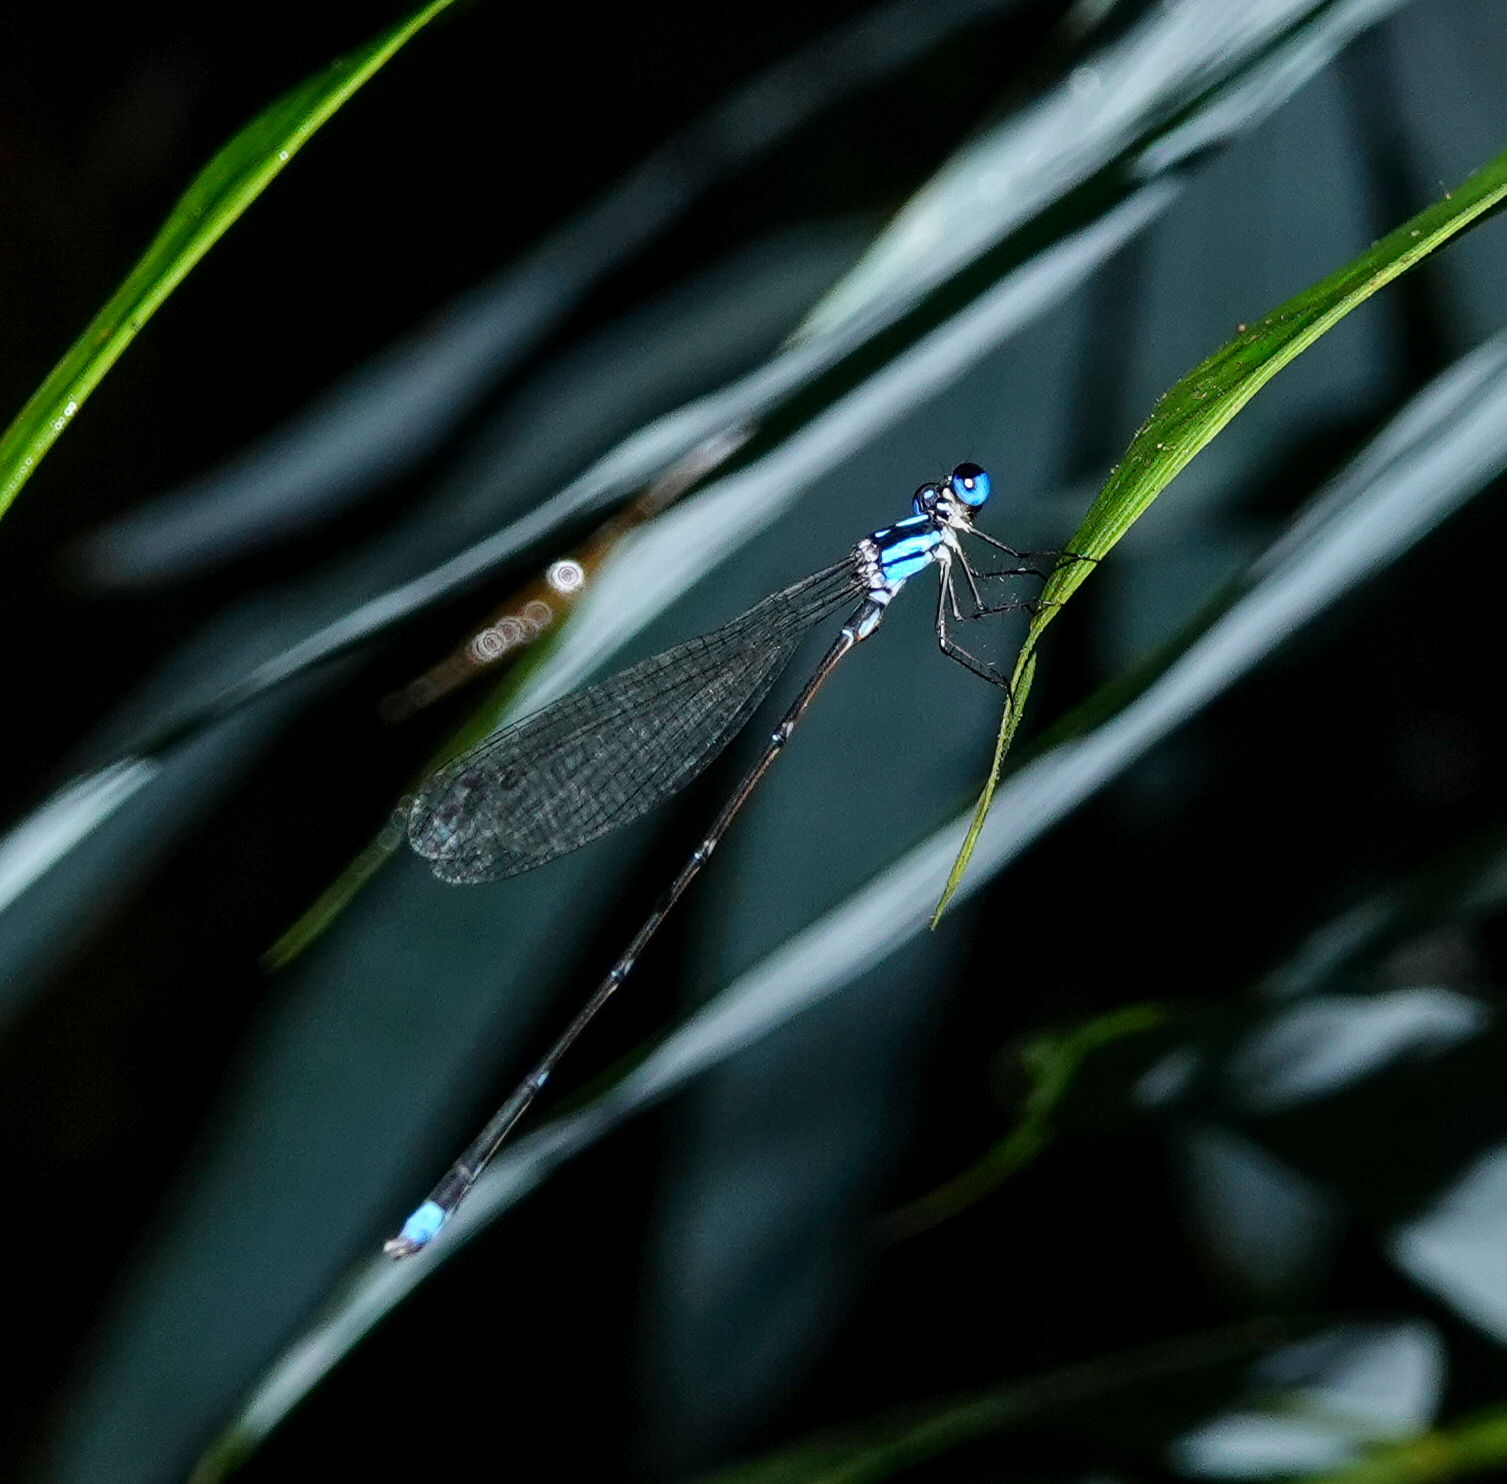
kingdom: Animalia
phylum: Arthropoda
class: Insecta
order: Odonata
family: Platycnemididae
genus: Coeliccia
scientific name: Coeliccia didyma
